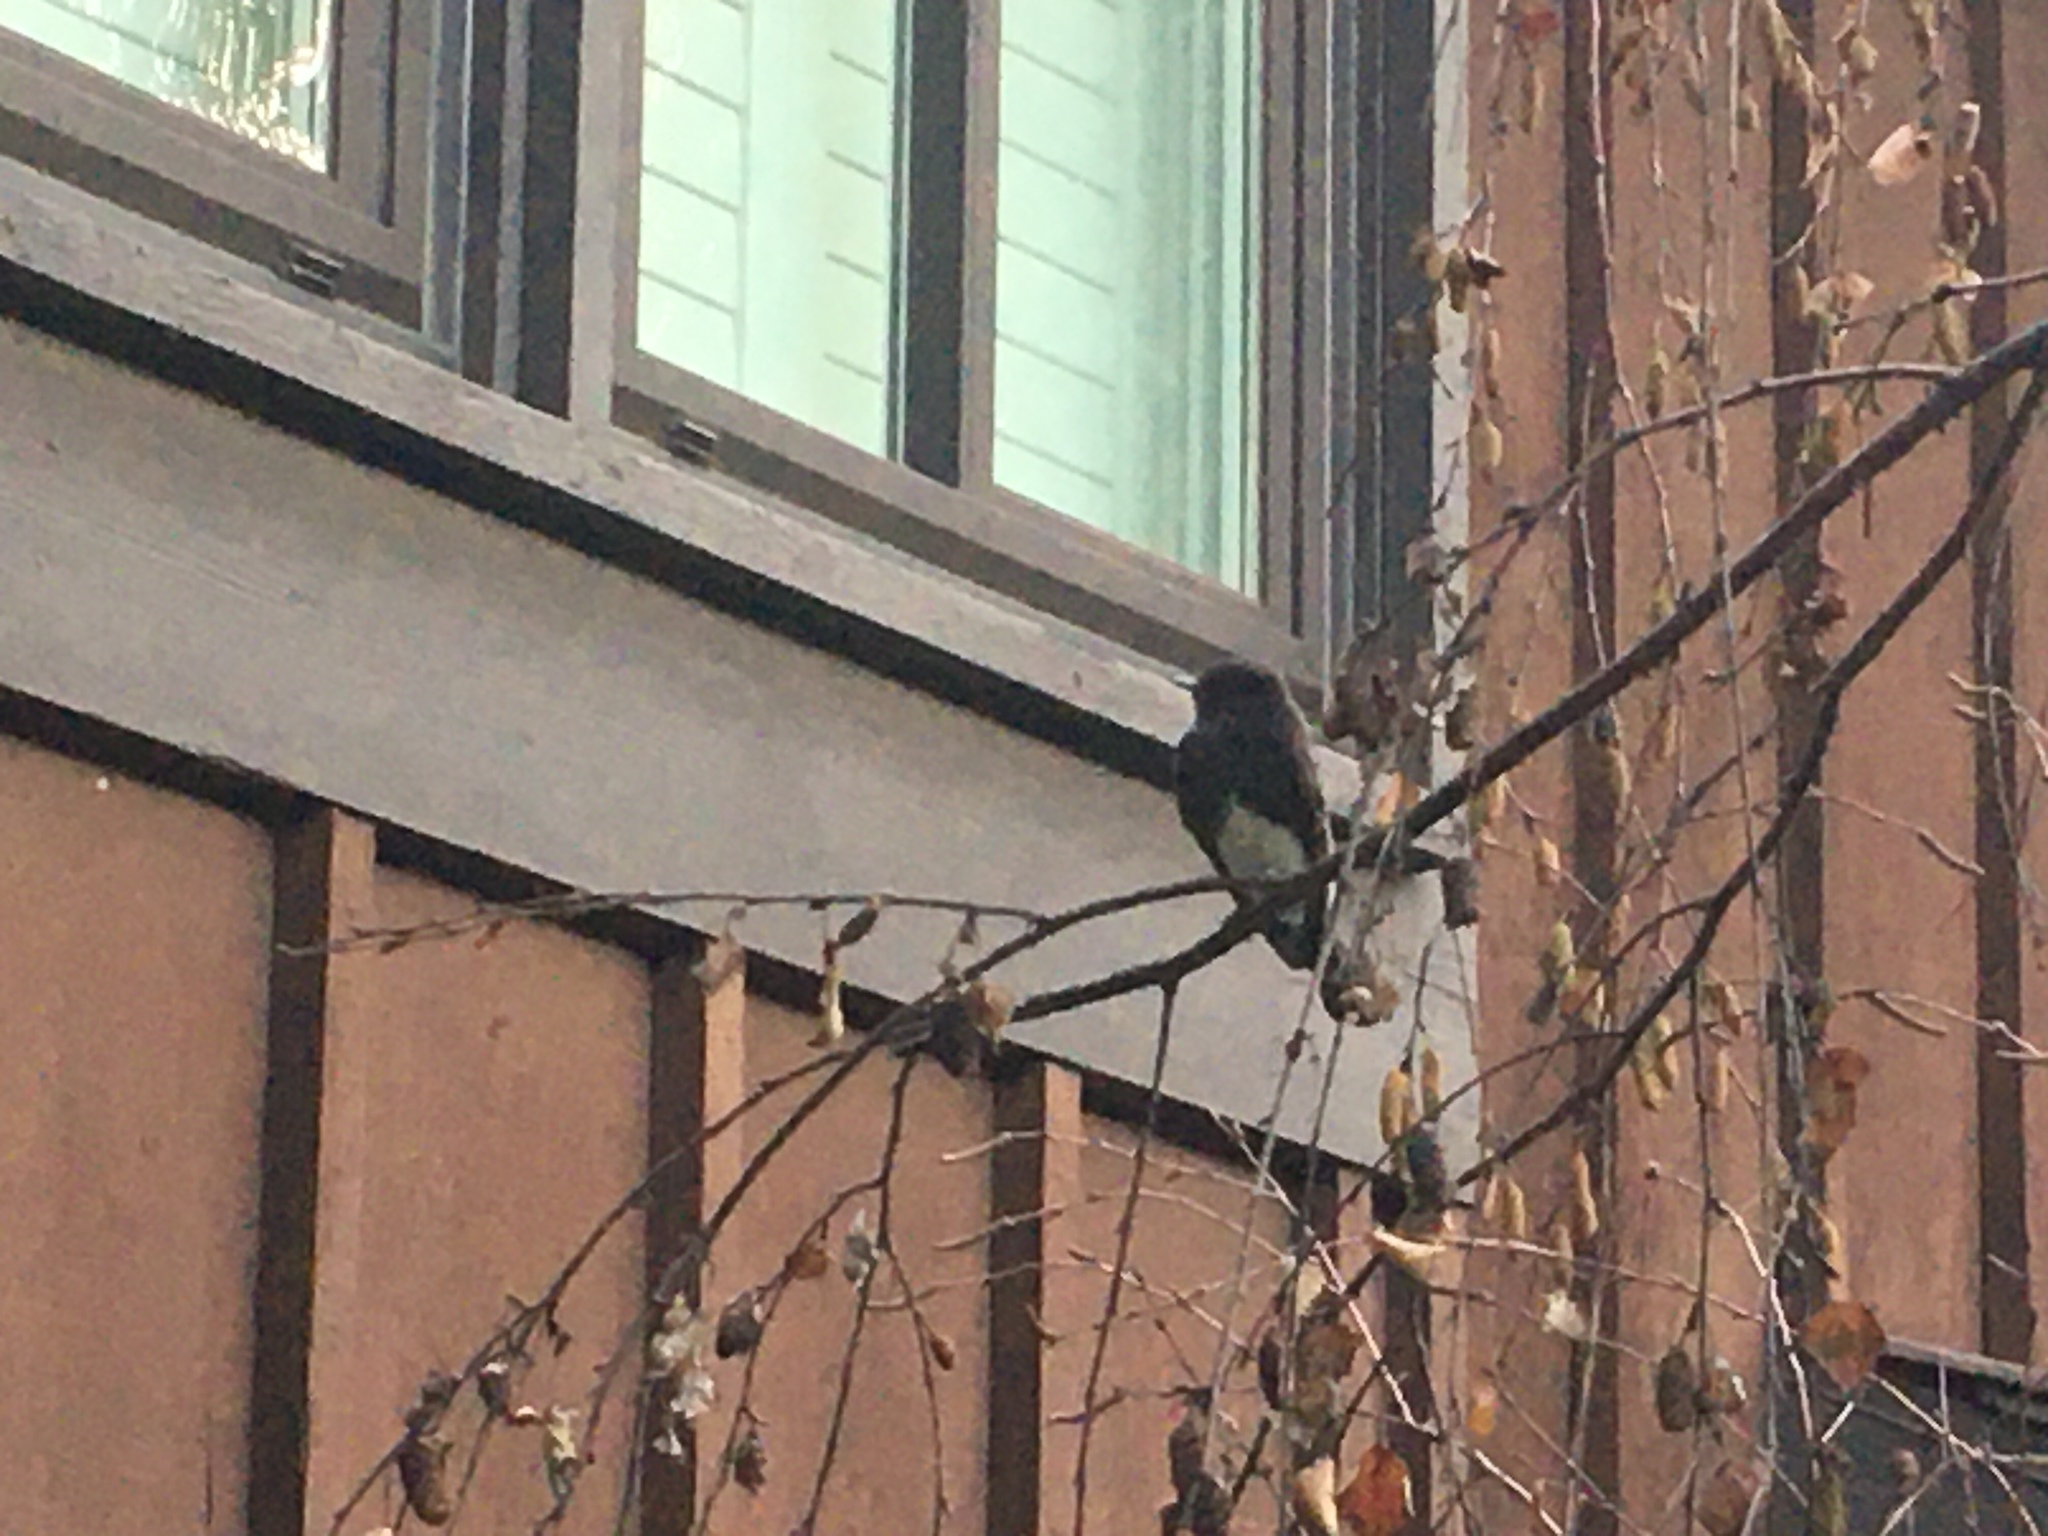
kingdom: Animalia
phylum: Chordata
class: Aves
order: Passeriformes
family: Tyrannidae
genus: Sayornis
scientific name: Sayornis nigricans
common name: Black phoebe
